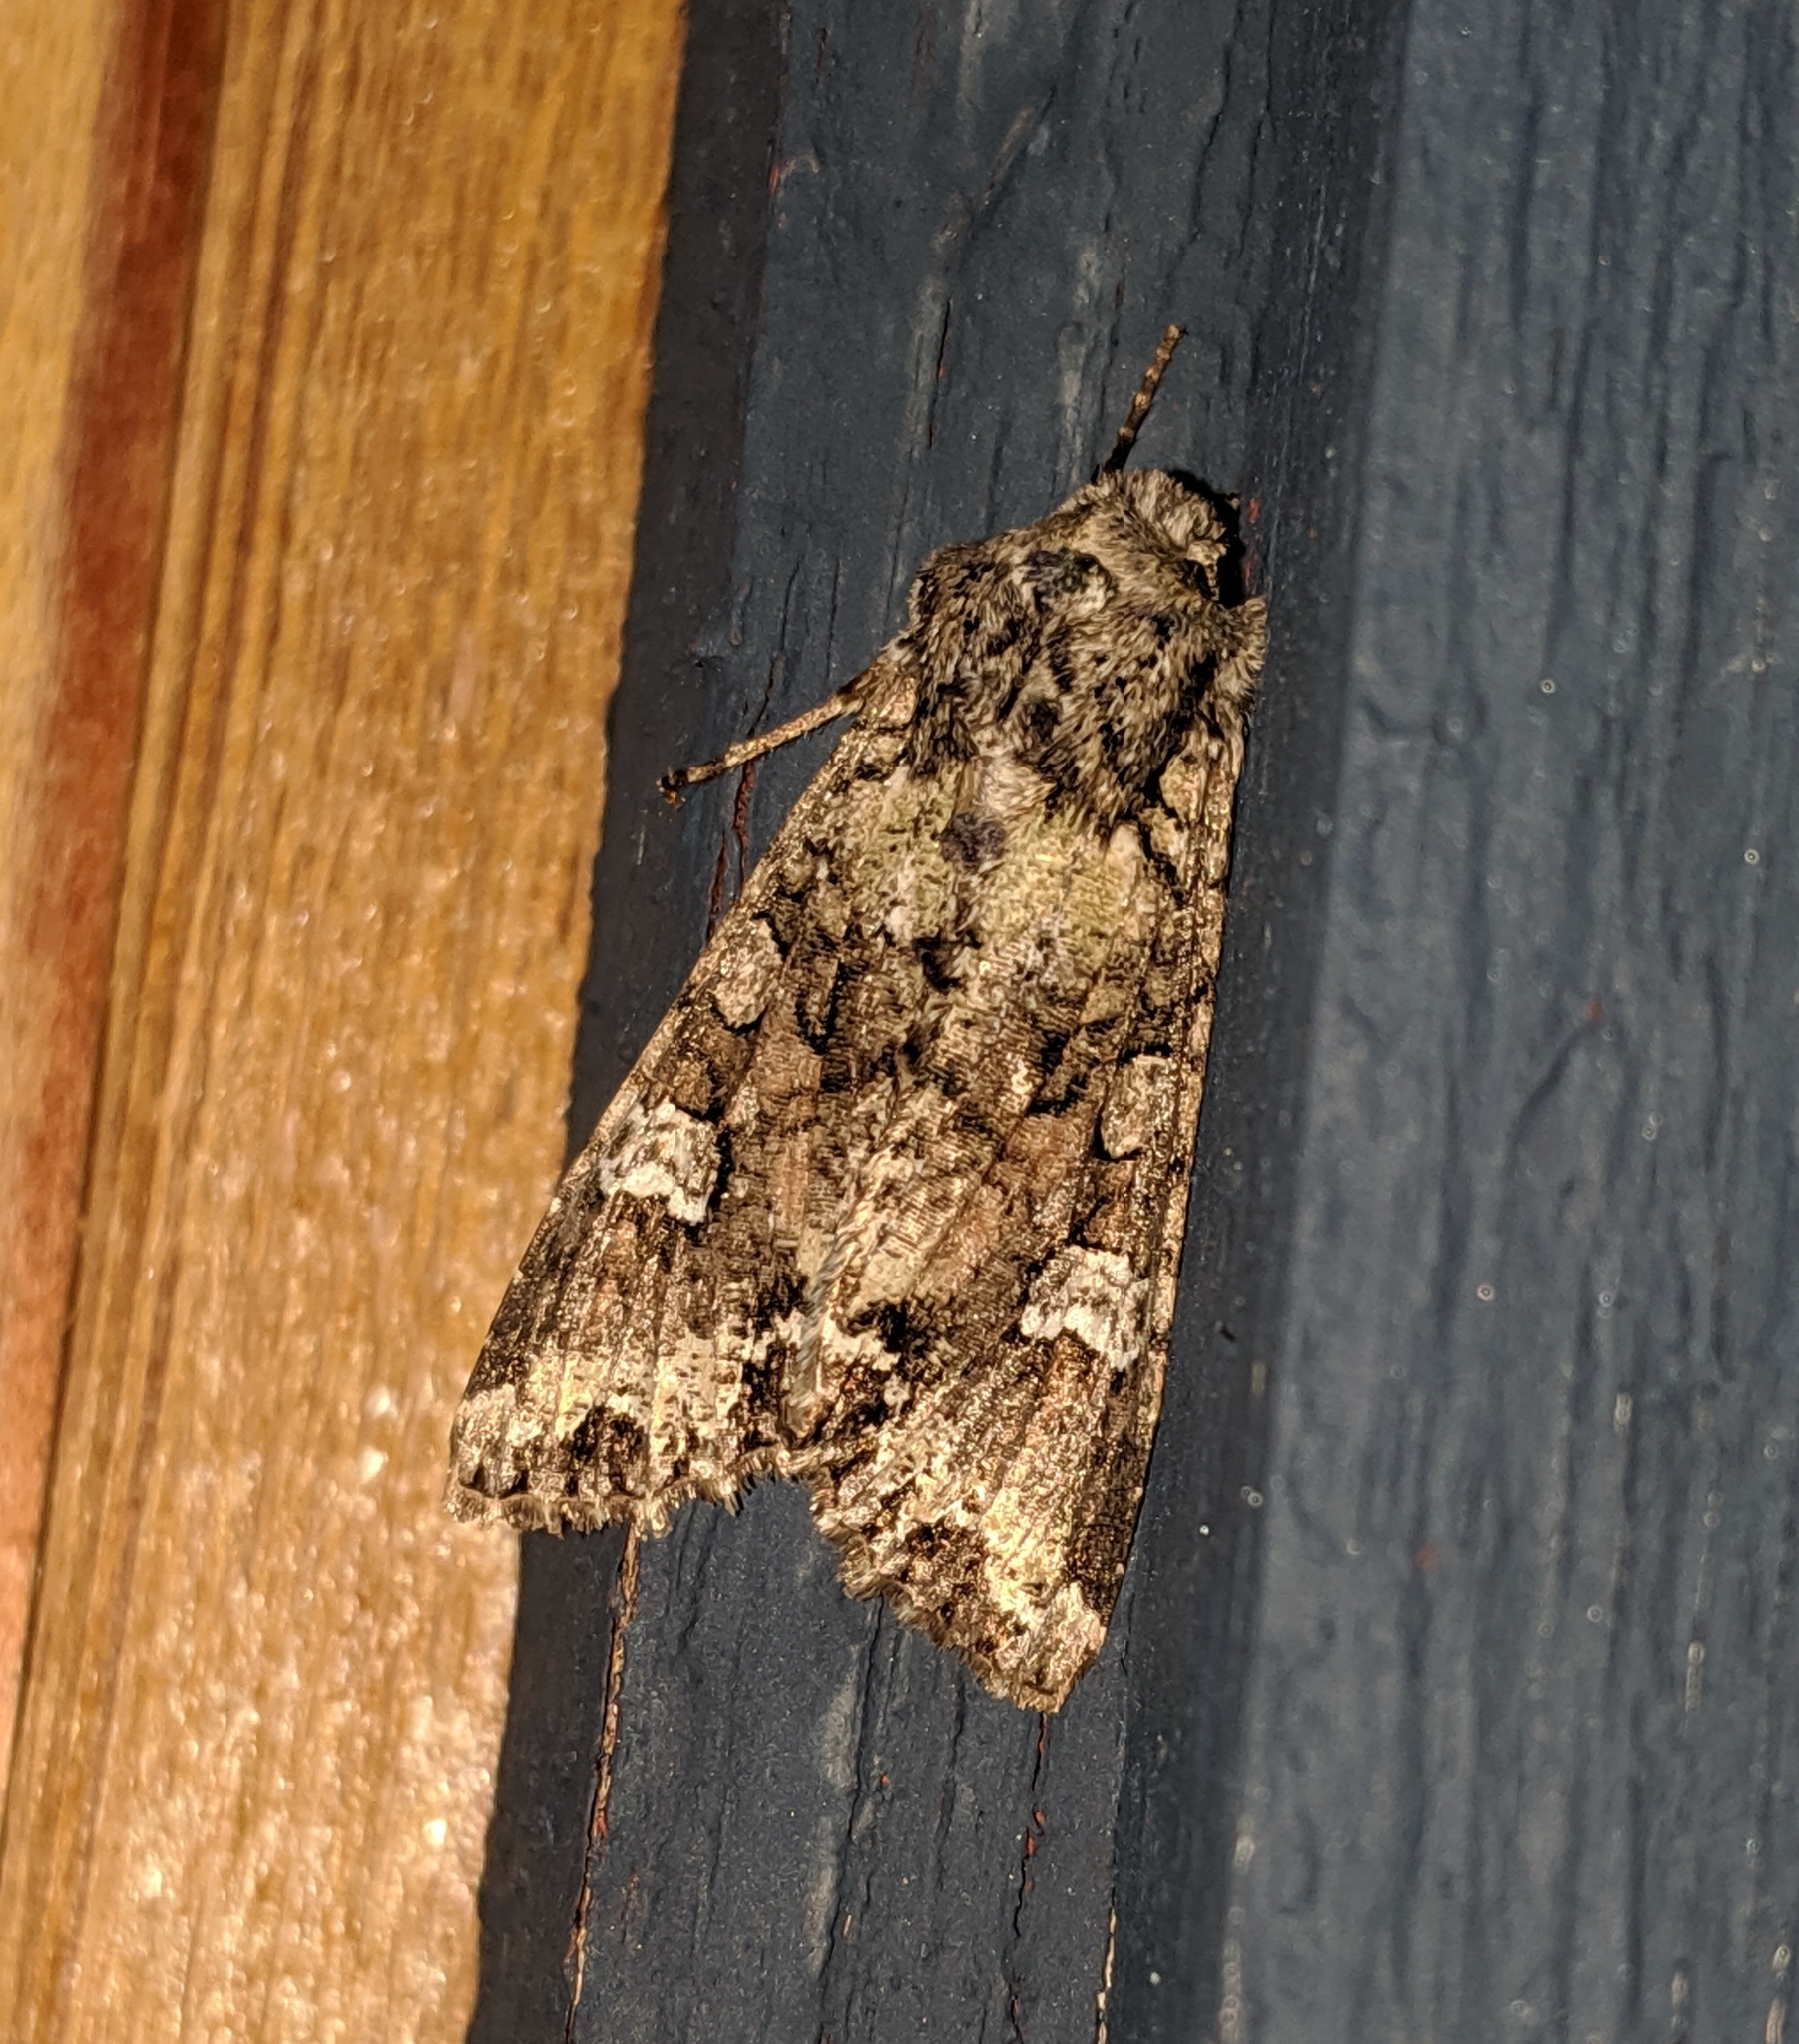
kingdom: Animalia
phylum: Arthropoda
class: Insecta
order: Lepidoptera
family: Noctuidae
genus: Mamestra
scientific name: Mamestra configurata
